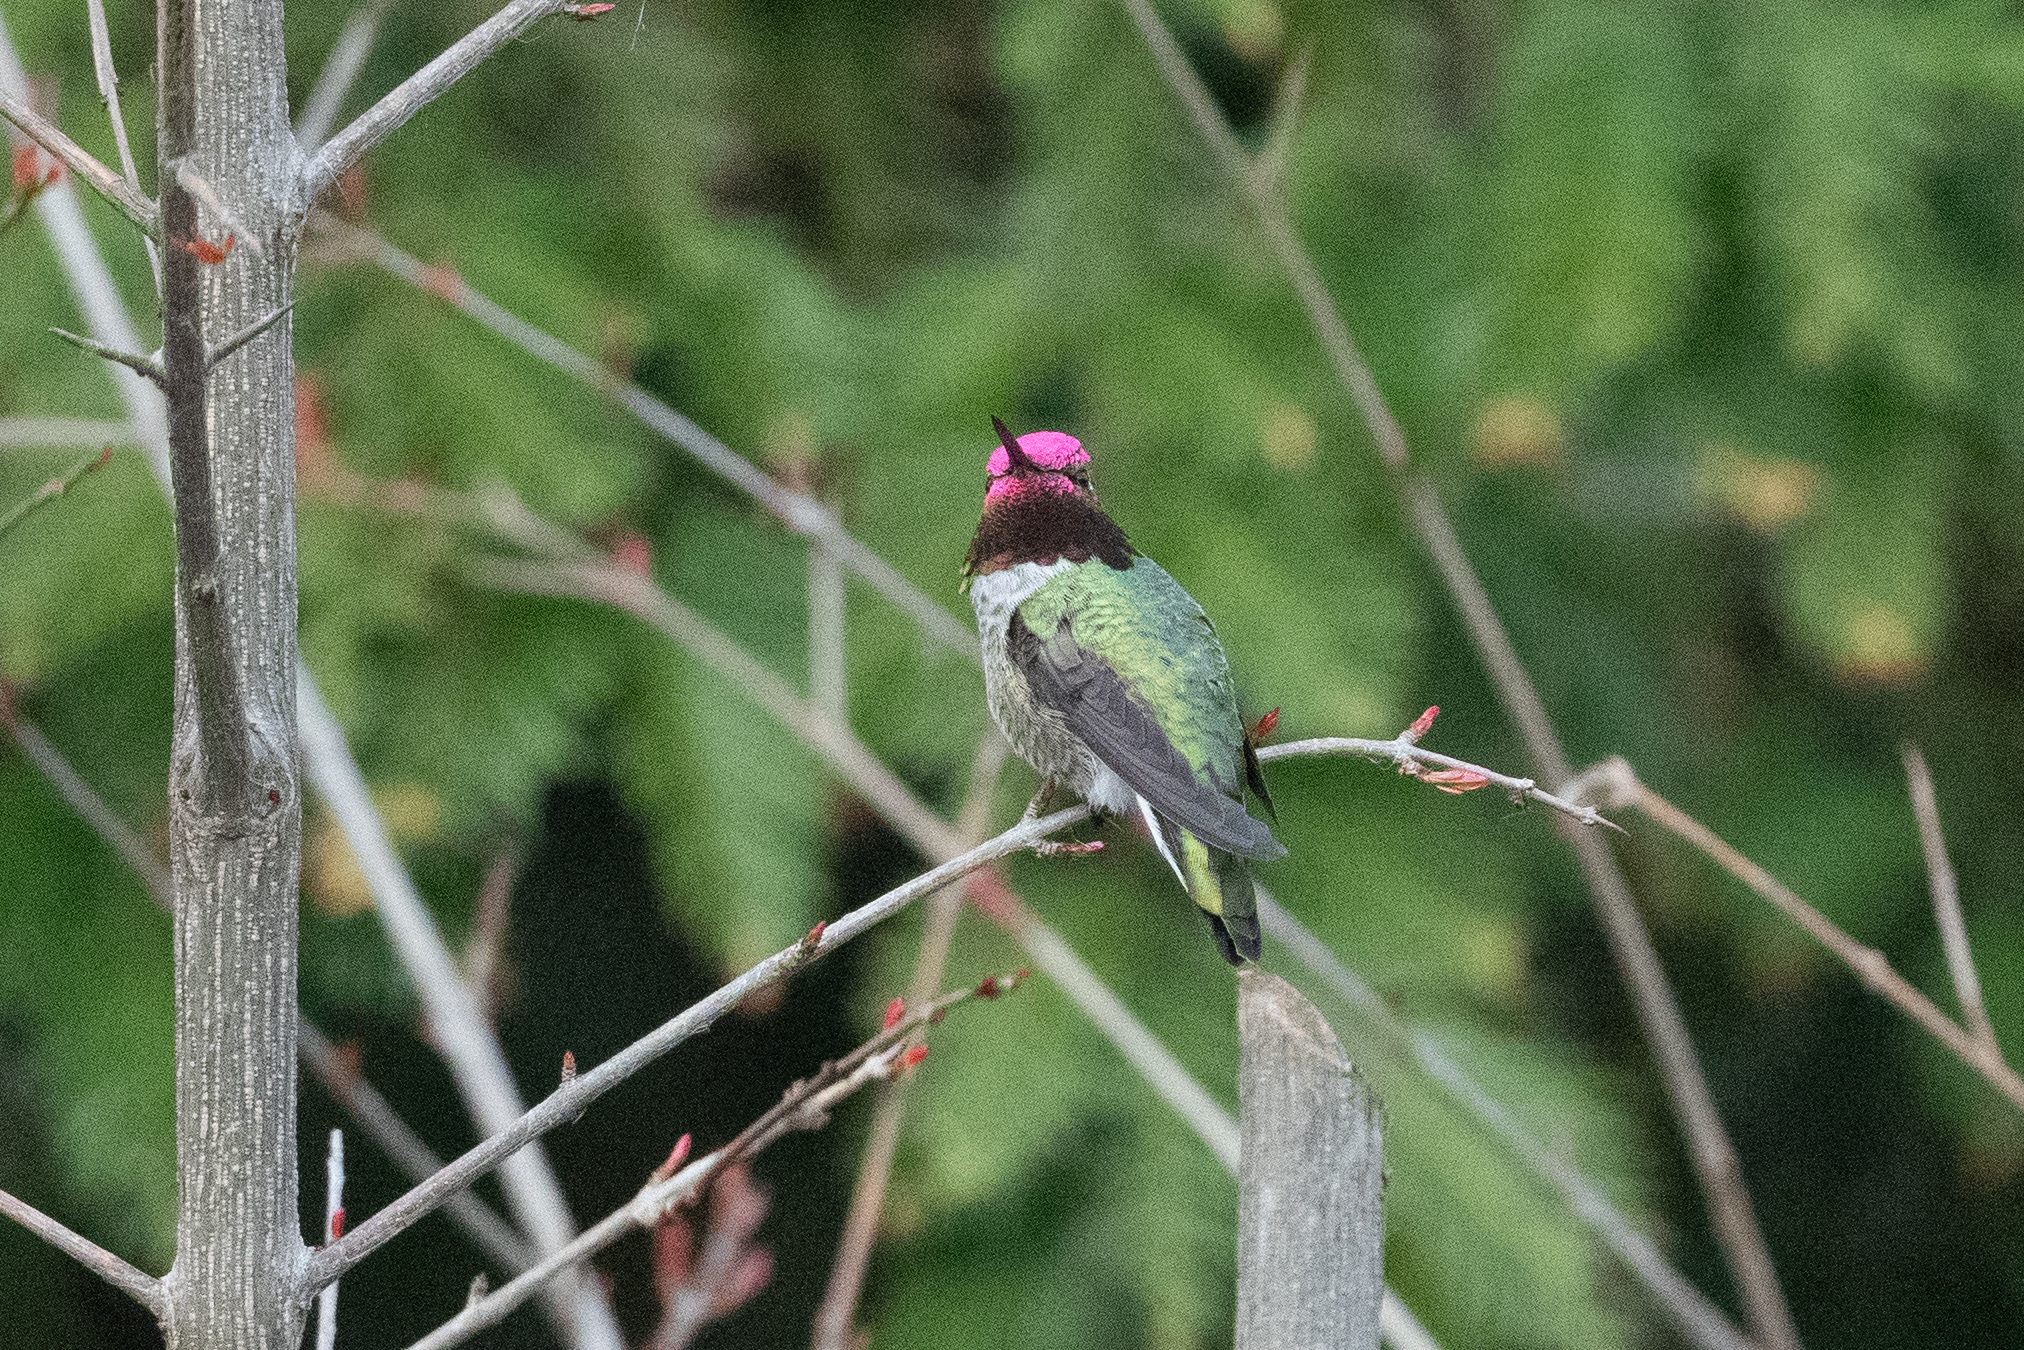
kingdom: Animalia
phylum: Chordata
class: Aves
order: Apodiformes
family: Trochilidae
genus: Calypte
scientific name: Calypte anna
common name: Anna's hummingbird
